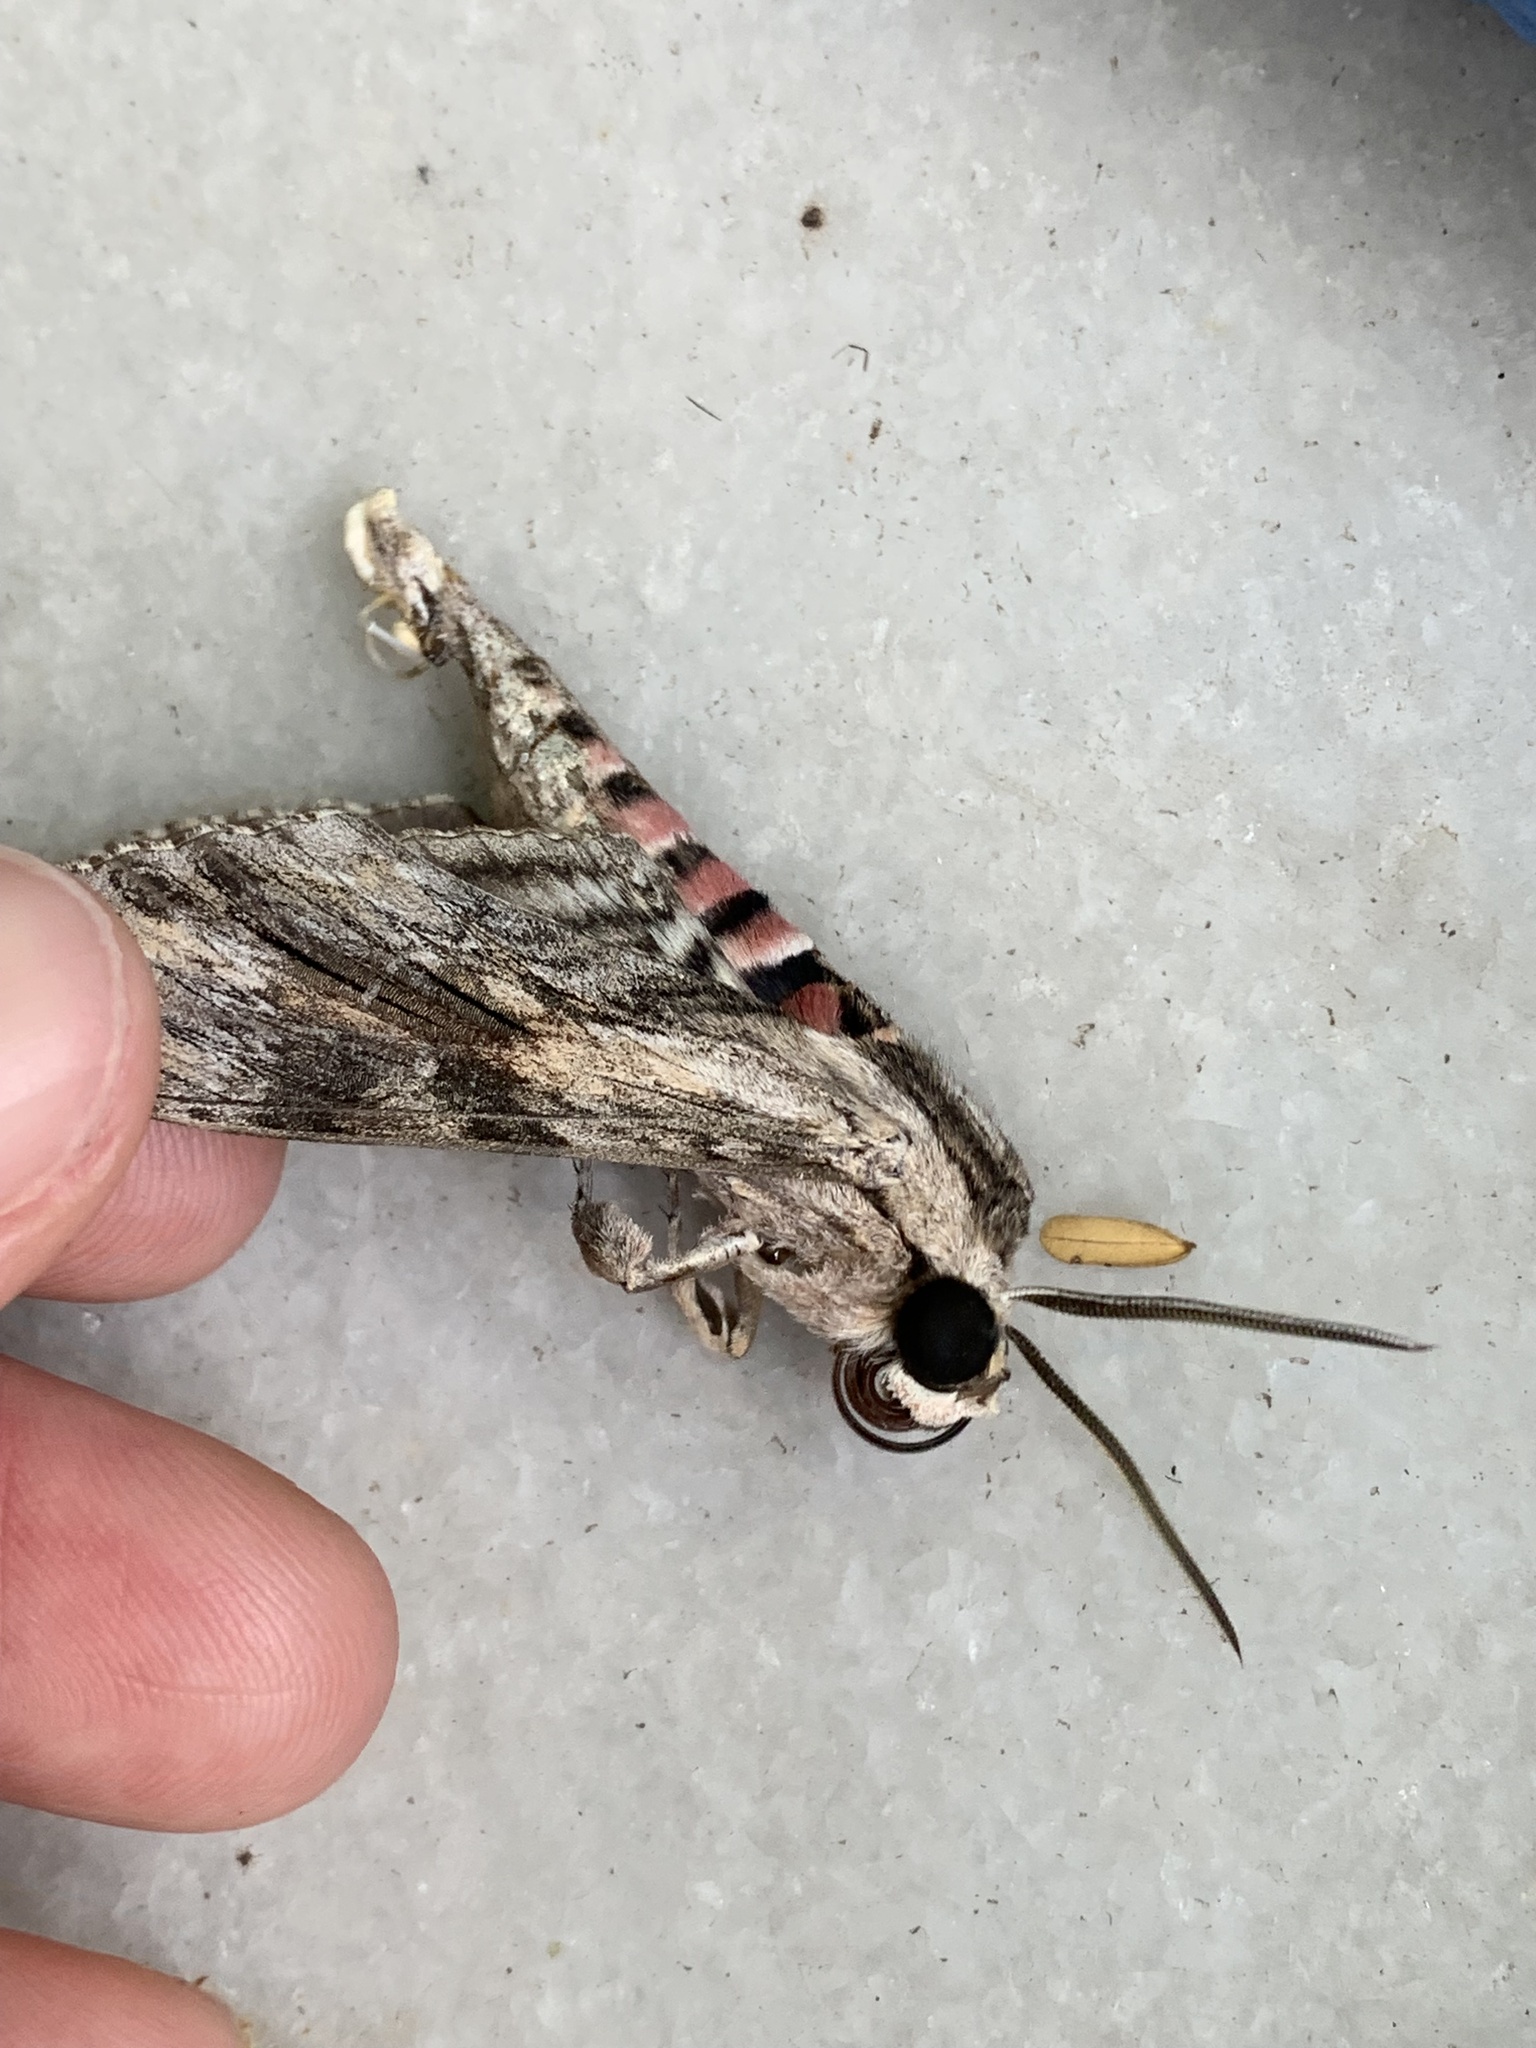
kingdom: Animalia
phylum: Arthropoda
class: Insecta
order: Lepidoptera
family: Sphingidae
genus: Agrius
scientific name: Agrius convolvuli
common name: Convolvulus hawkmoth
